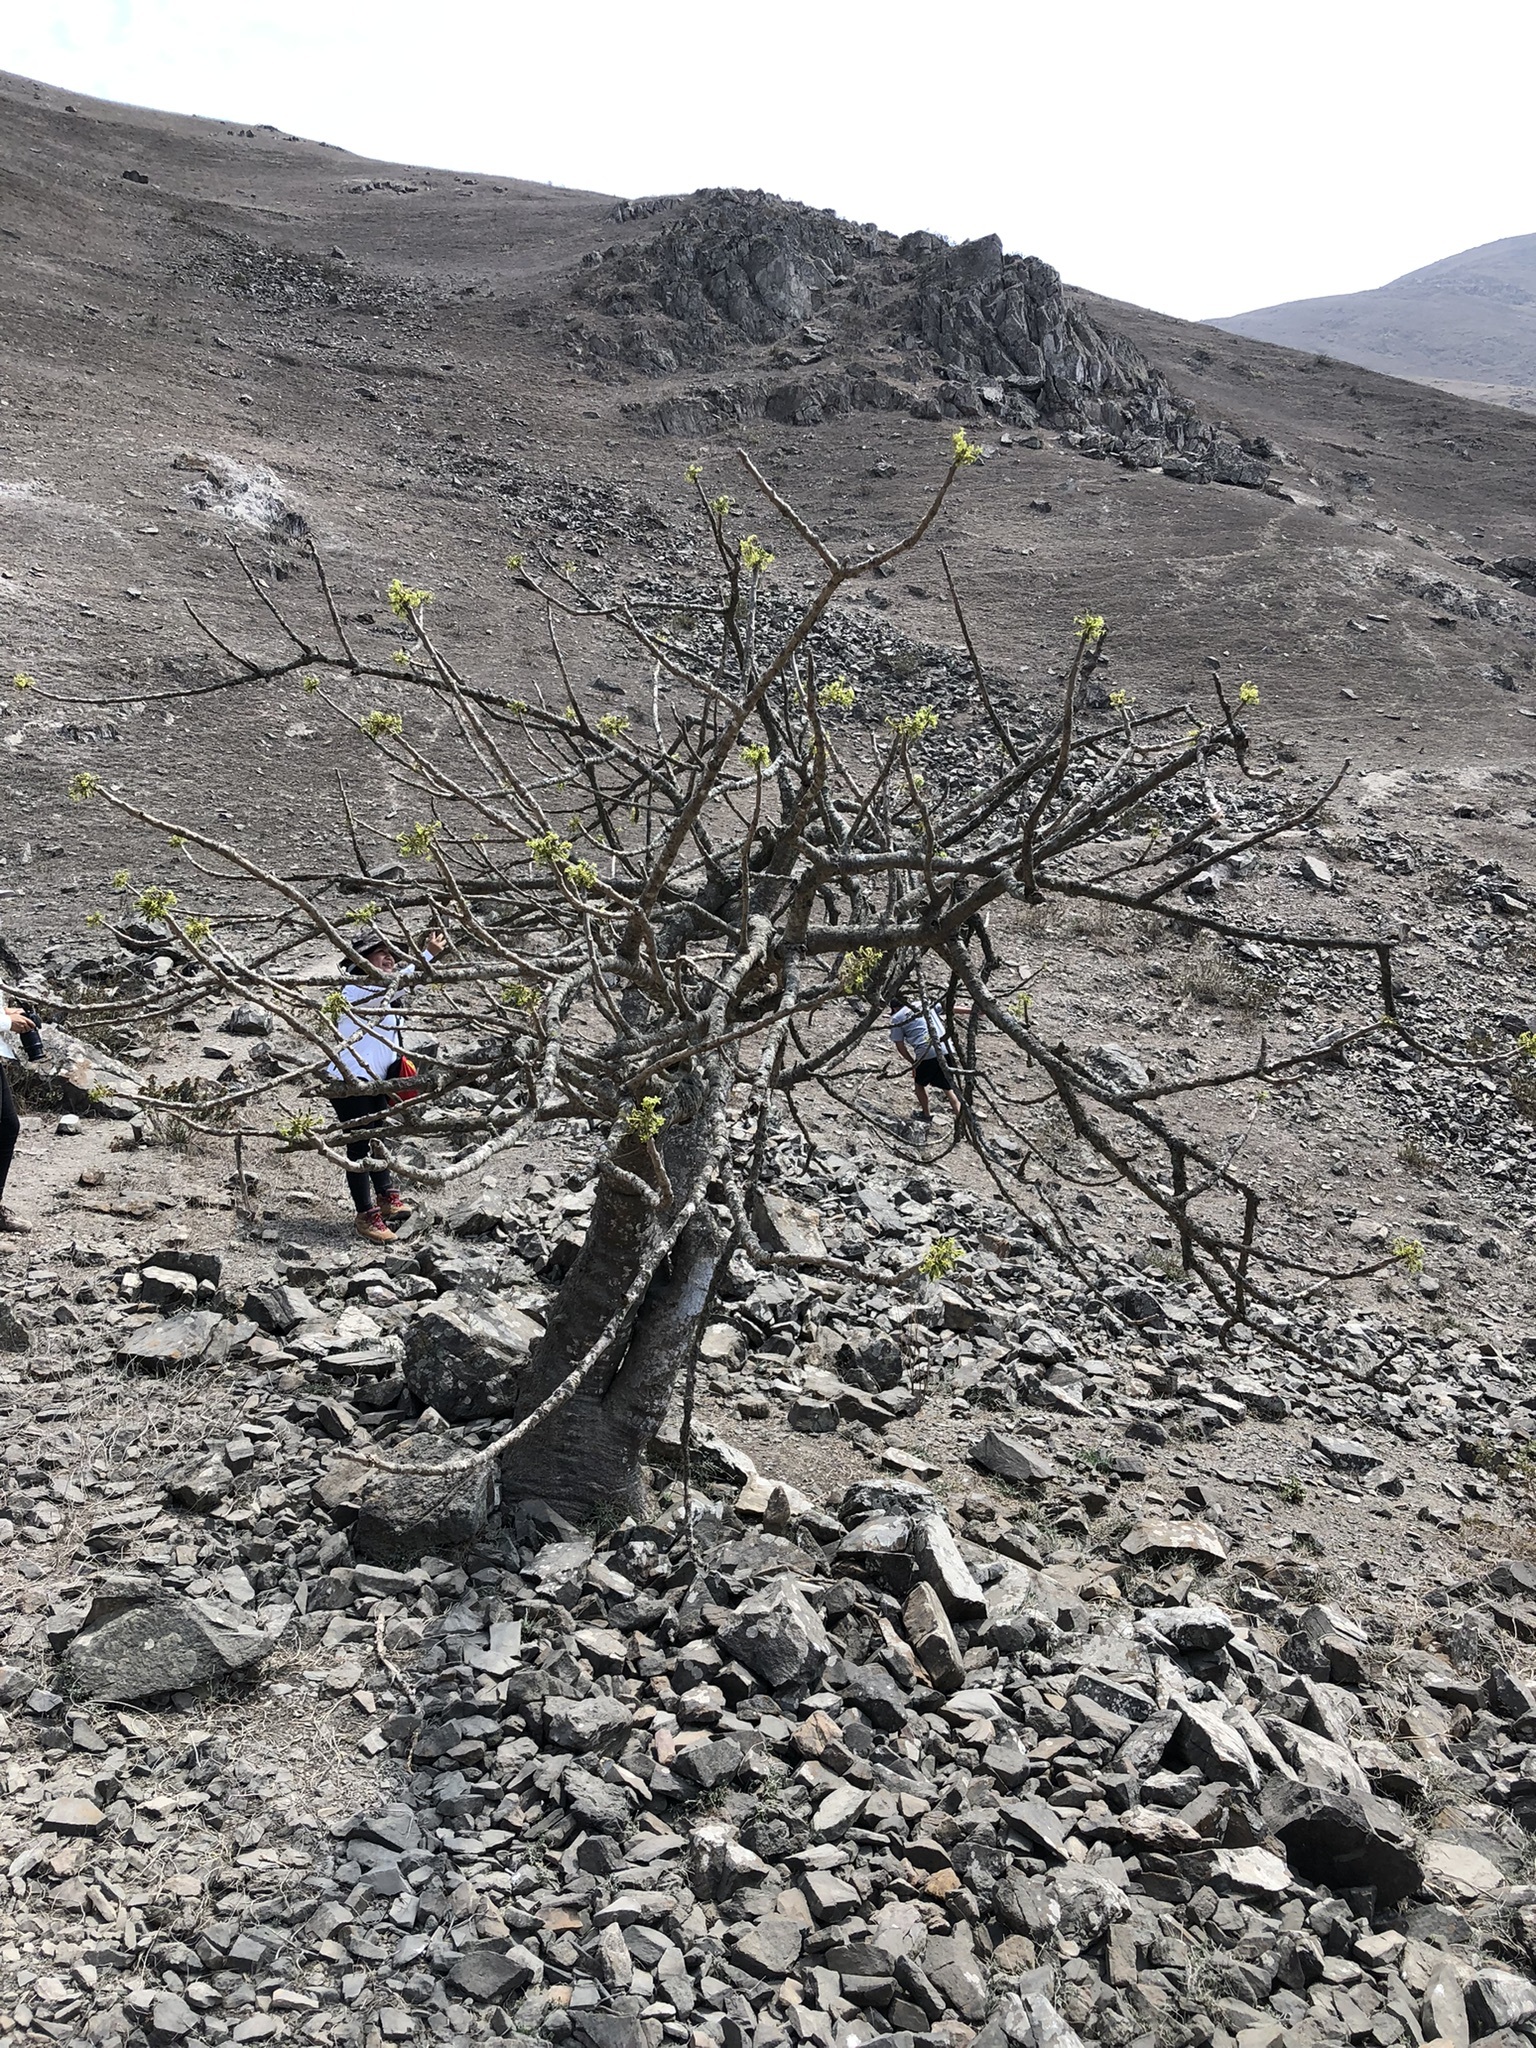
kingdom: Plantae
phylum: Tracheophyta
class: Magnoliopsida
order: Brassicales
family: Caricaceae
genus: Vasconcellea
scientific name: Vasconcellea candicans
